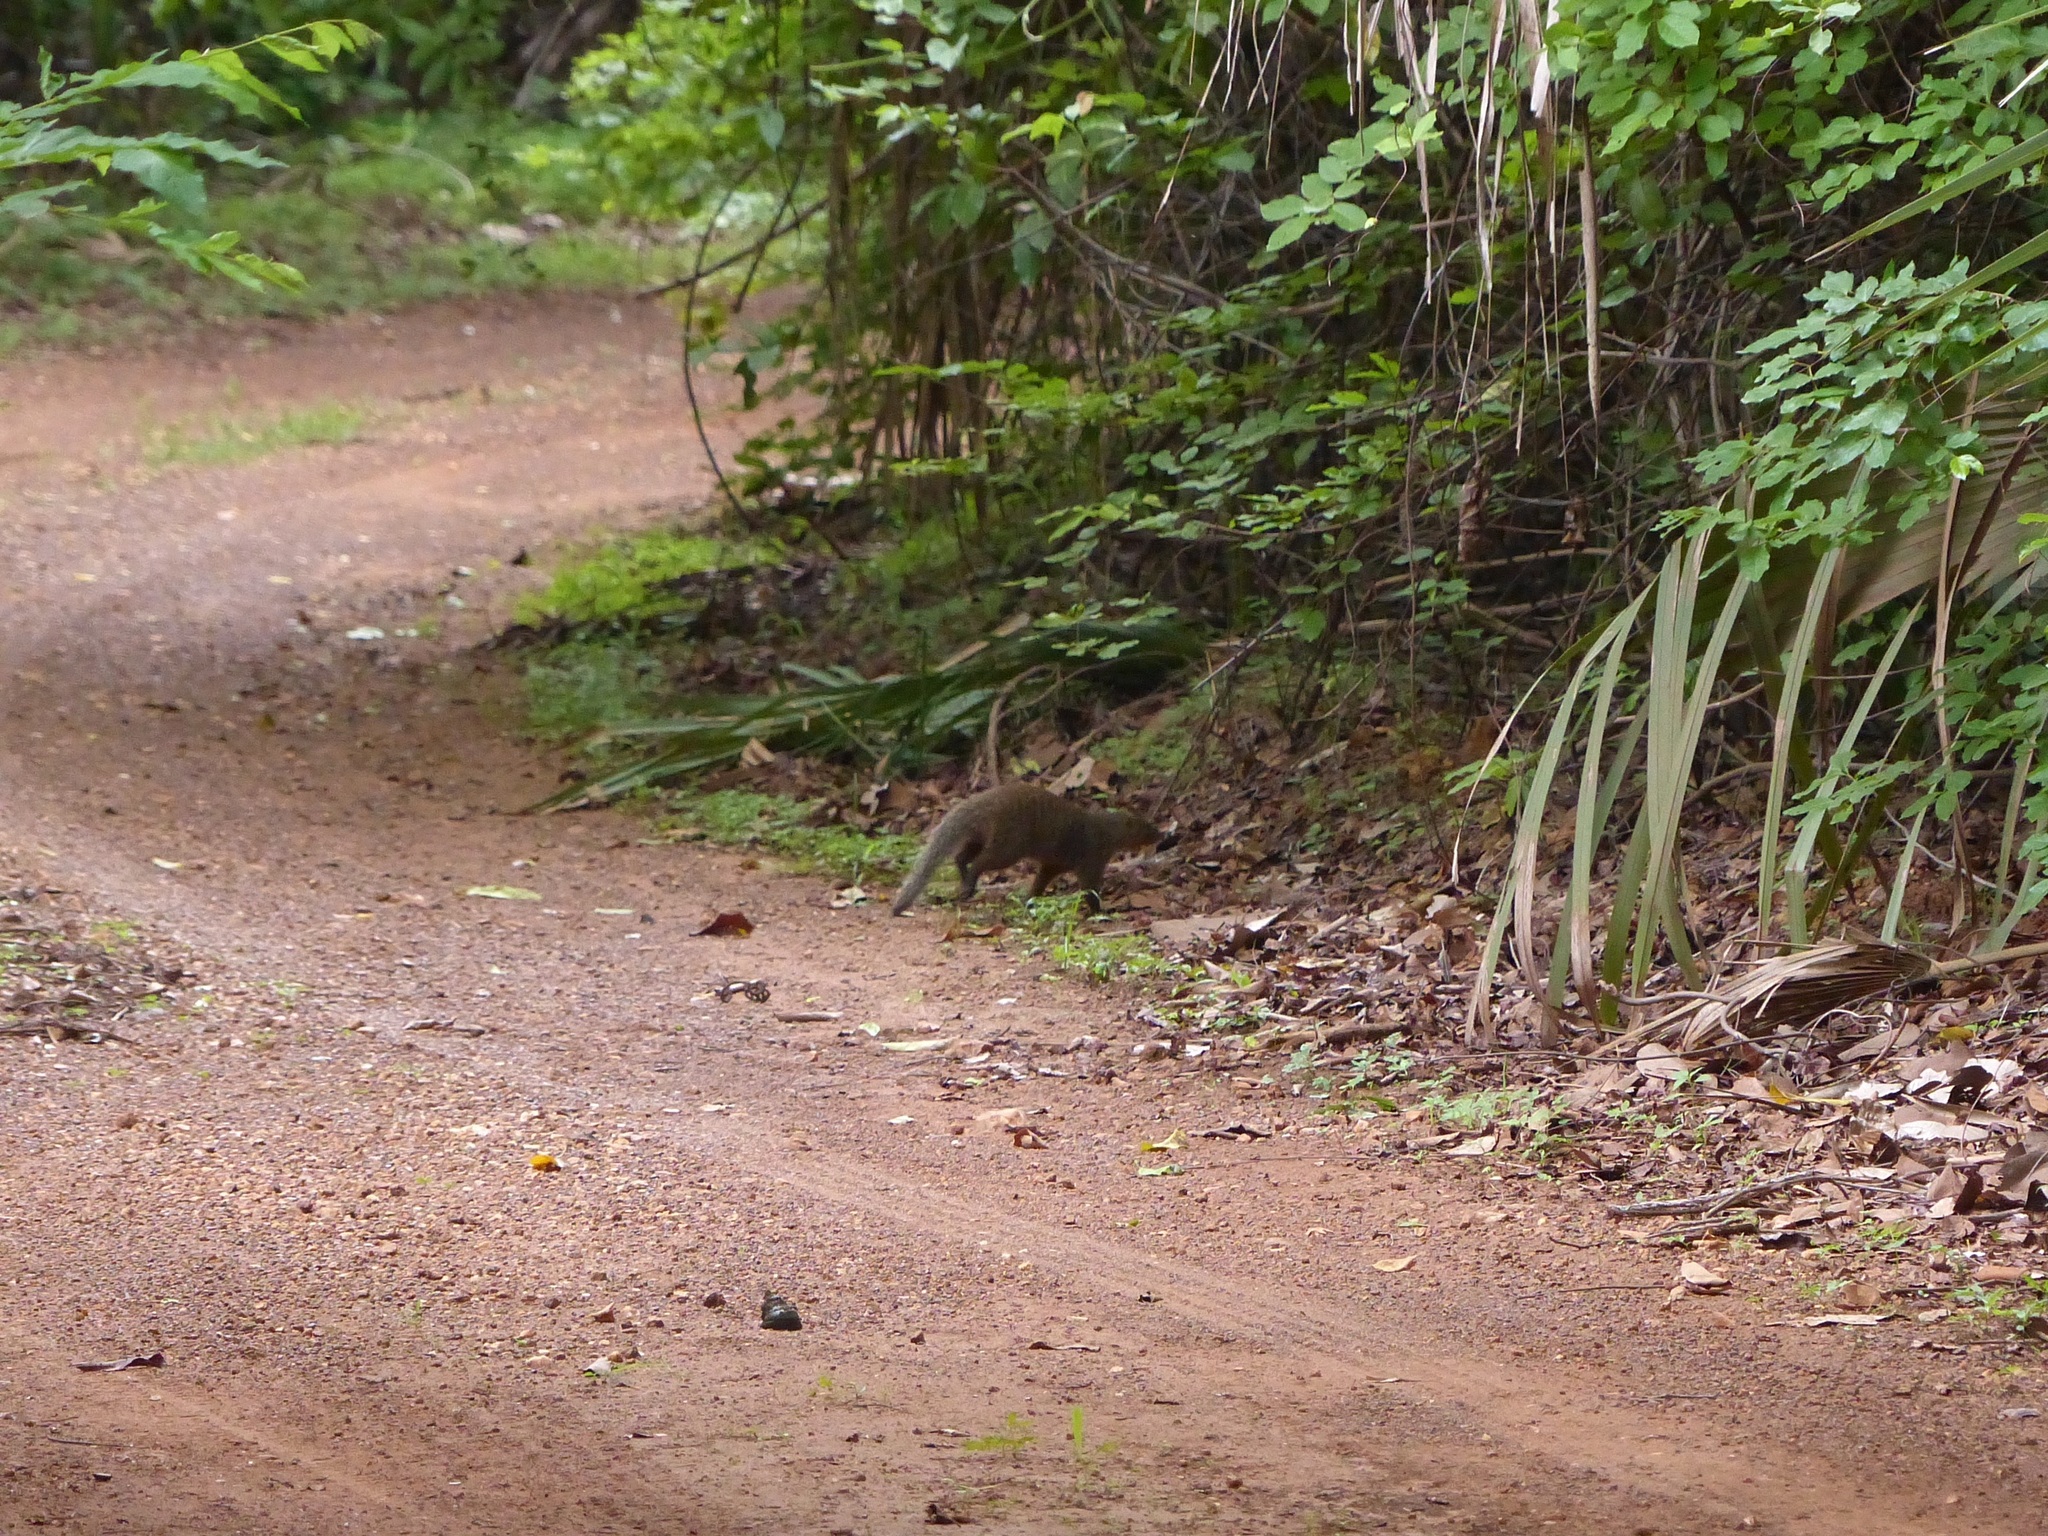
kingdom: Animalia
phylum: Chordata
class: Mammalia
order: Carnivora
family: Herpestidae
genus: Mungos
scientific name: Mungos mungo
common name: Banded mongoose
